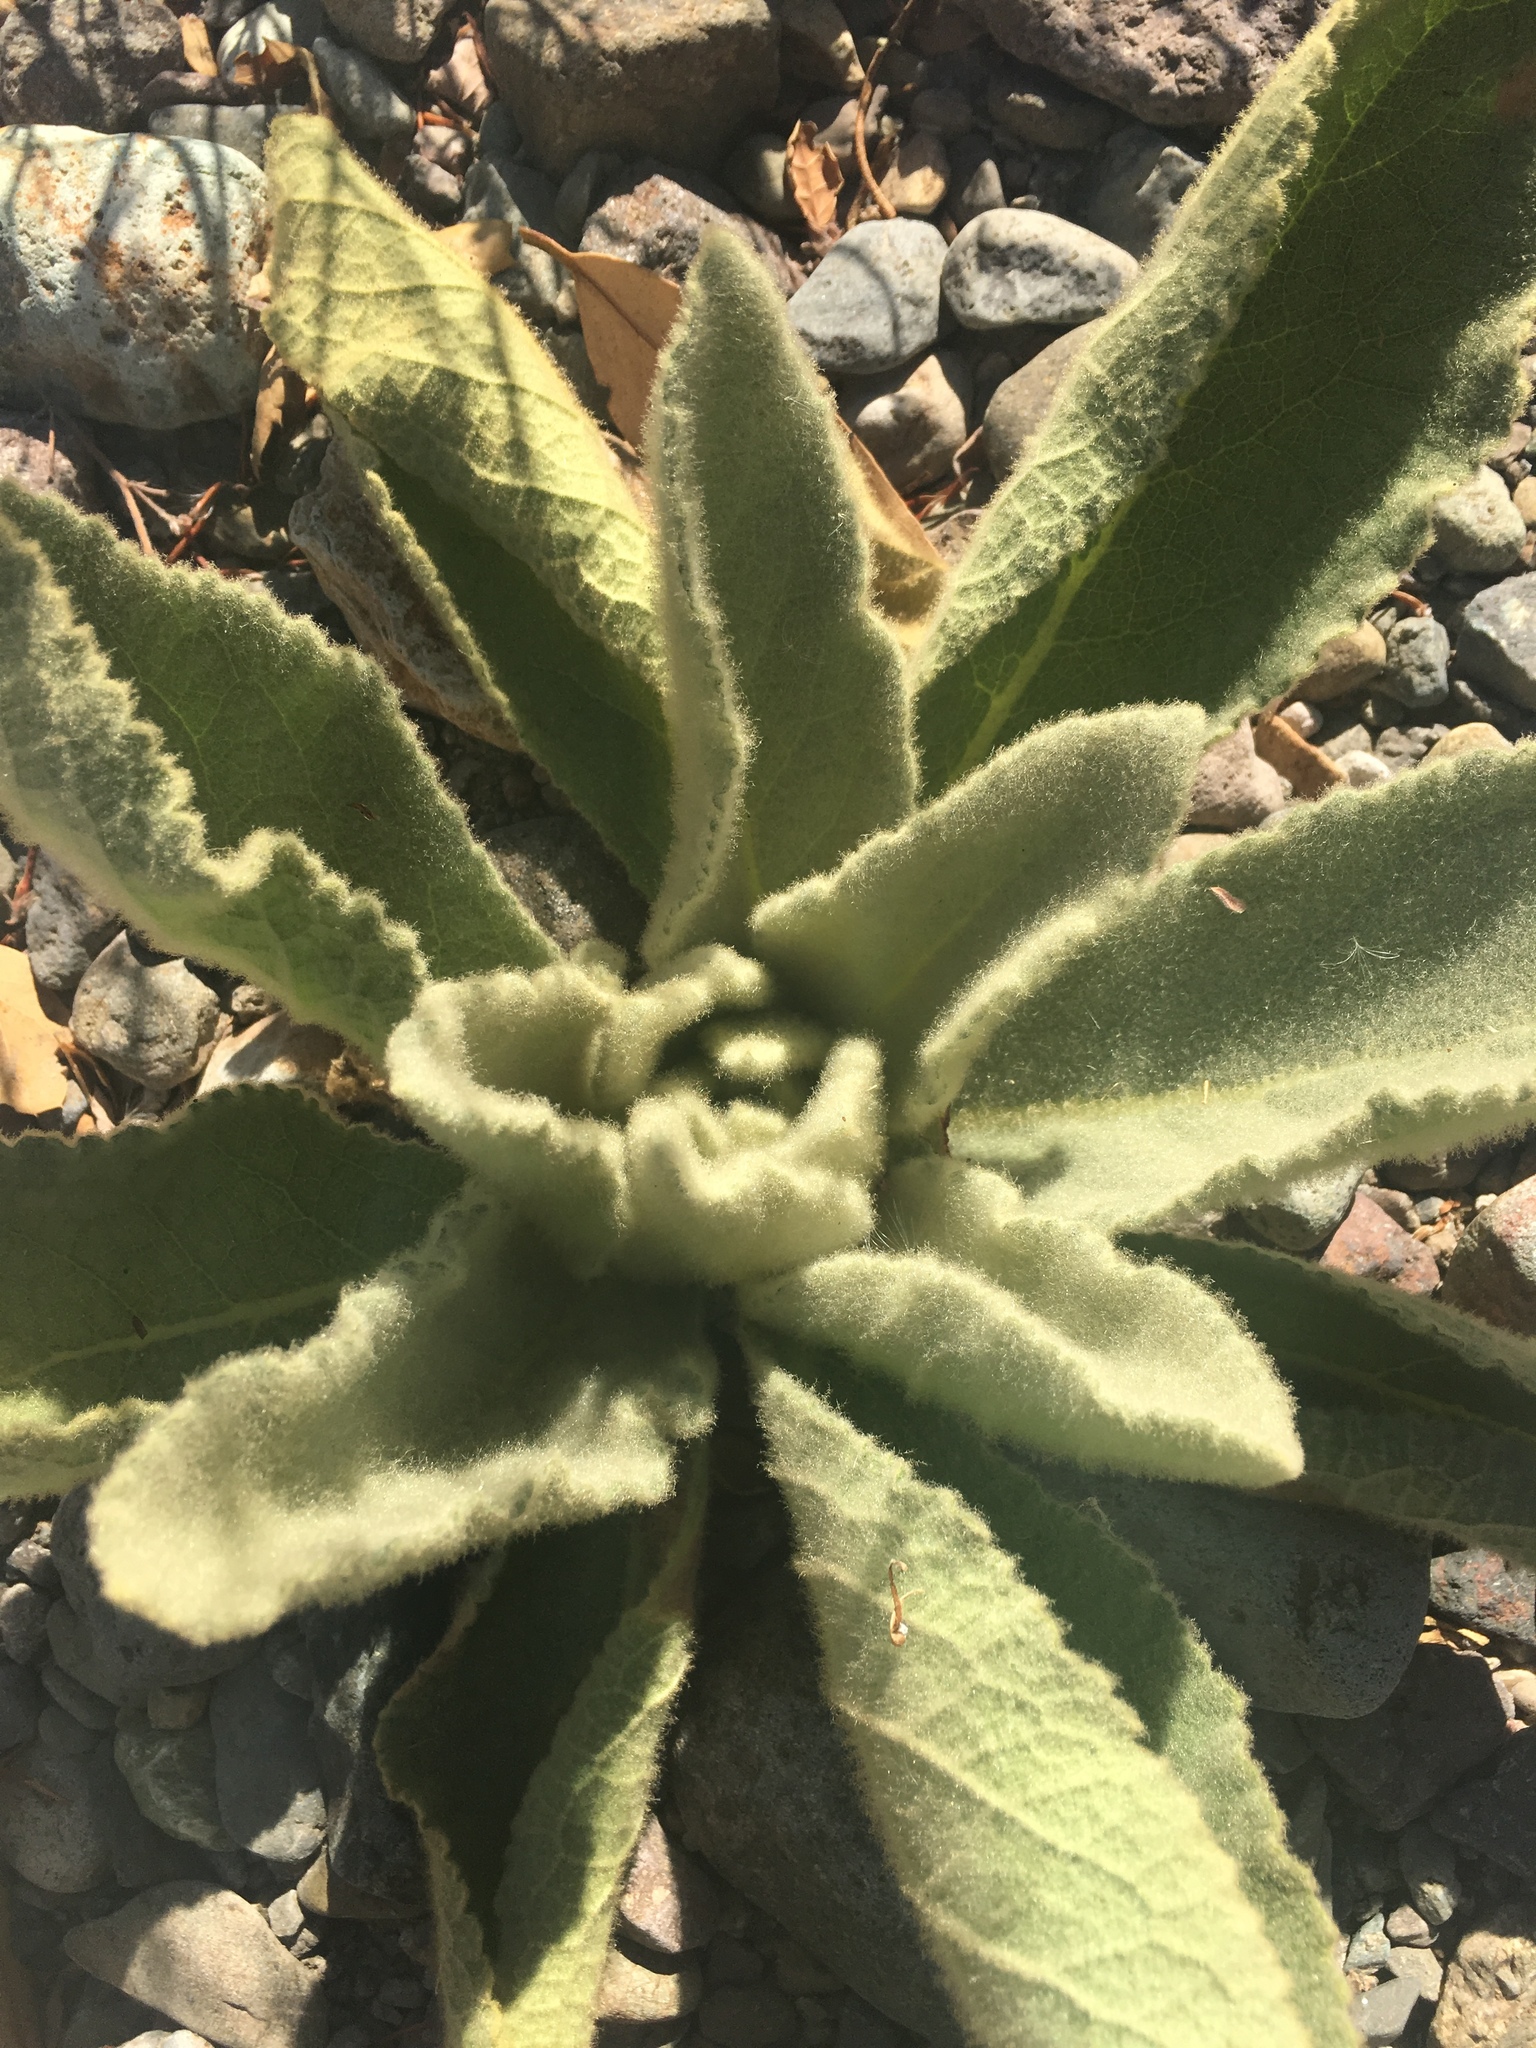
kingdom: Plantae
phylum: Tracheophyta
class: Magnoliopsida
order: Lamiales
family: Scrophulariaceae
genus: Verbascum
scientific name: Verbascum thapsus
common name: Common mullein
